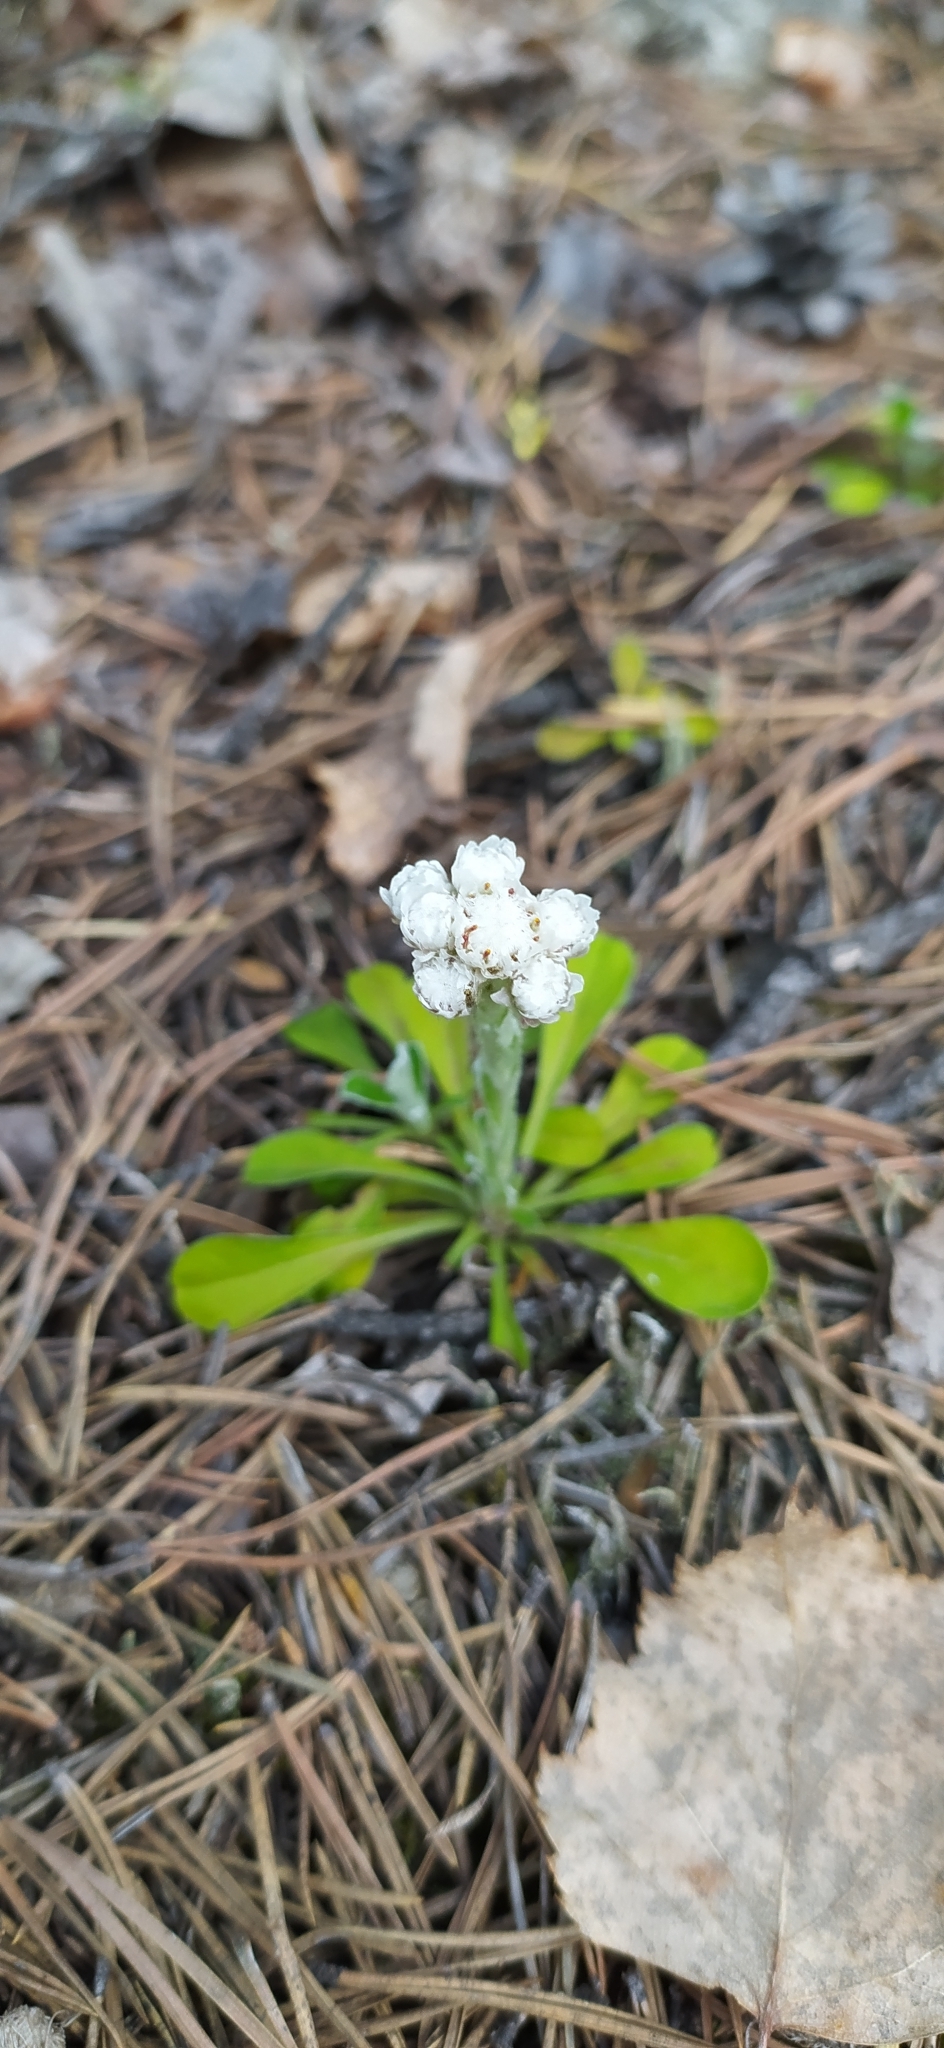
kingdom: Plantae
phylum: Tracheophyta
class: Magnoliopsida
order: Asterales
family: Asteraceae
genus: Antennaria
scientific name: Antennaria dioica
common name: Mountain everlasting
